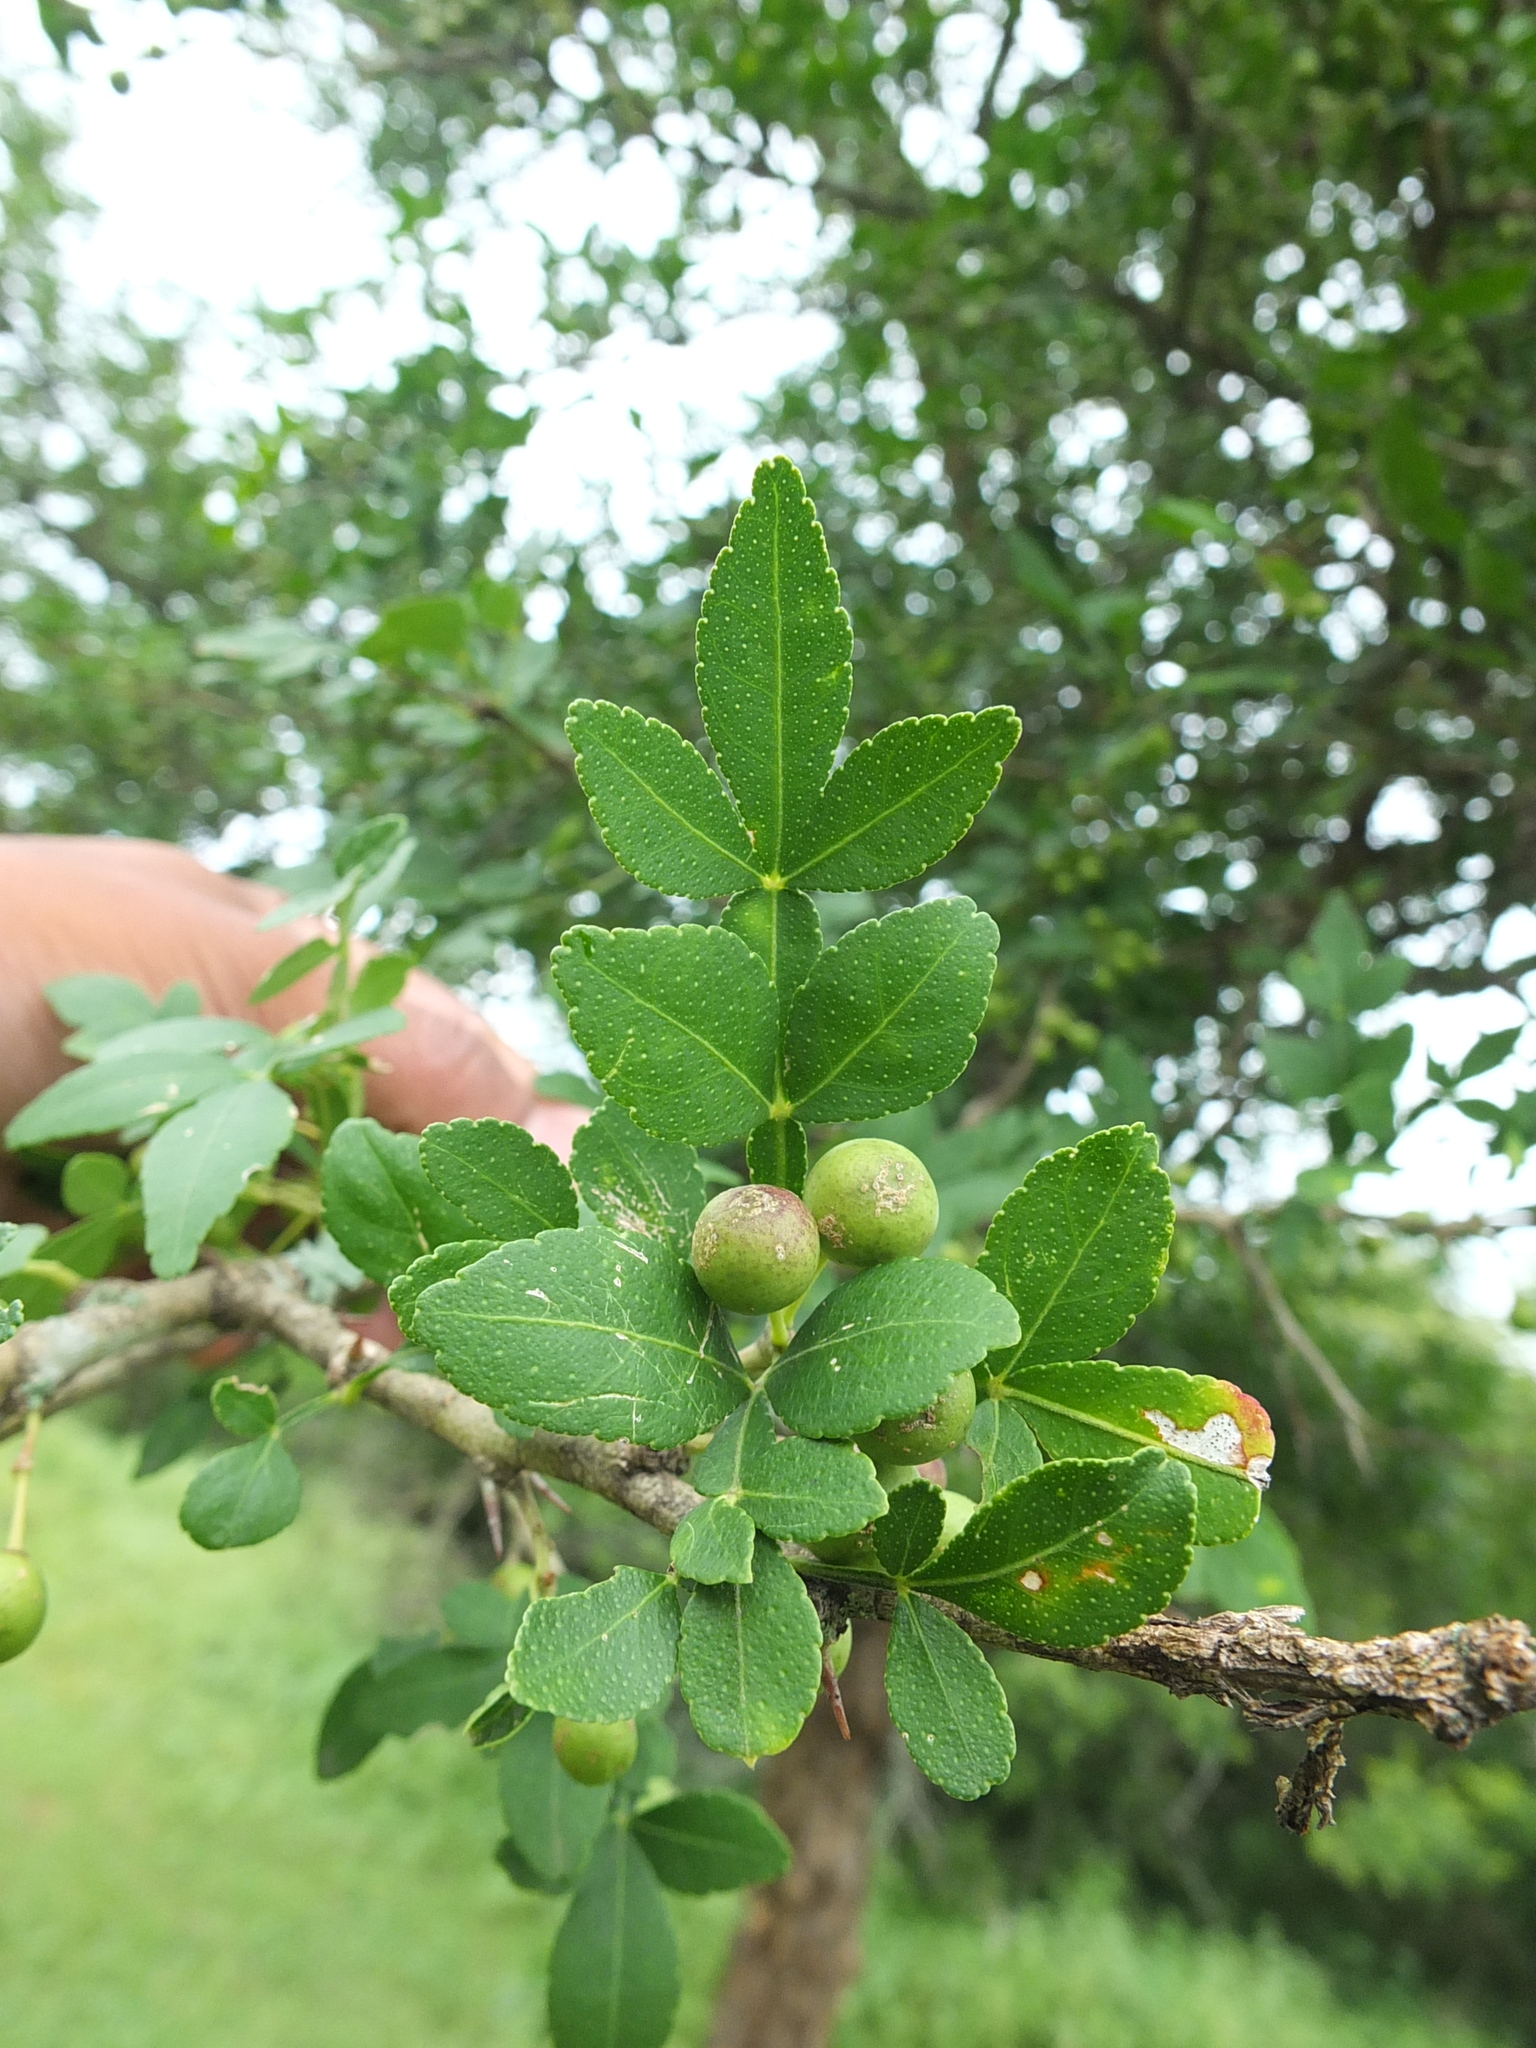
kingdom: Plantae
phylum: Tracheophyta
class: Magnoliopsida
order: Sapindales
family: Rutaceae
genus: Naringi
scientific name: Naringi crenulata
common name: Hesperethusa
